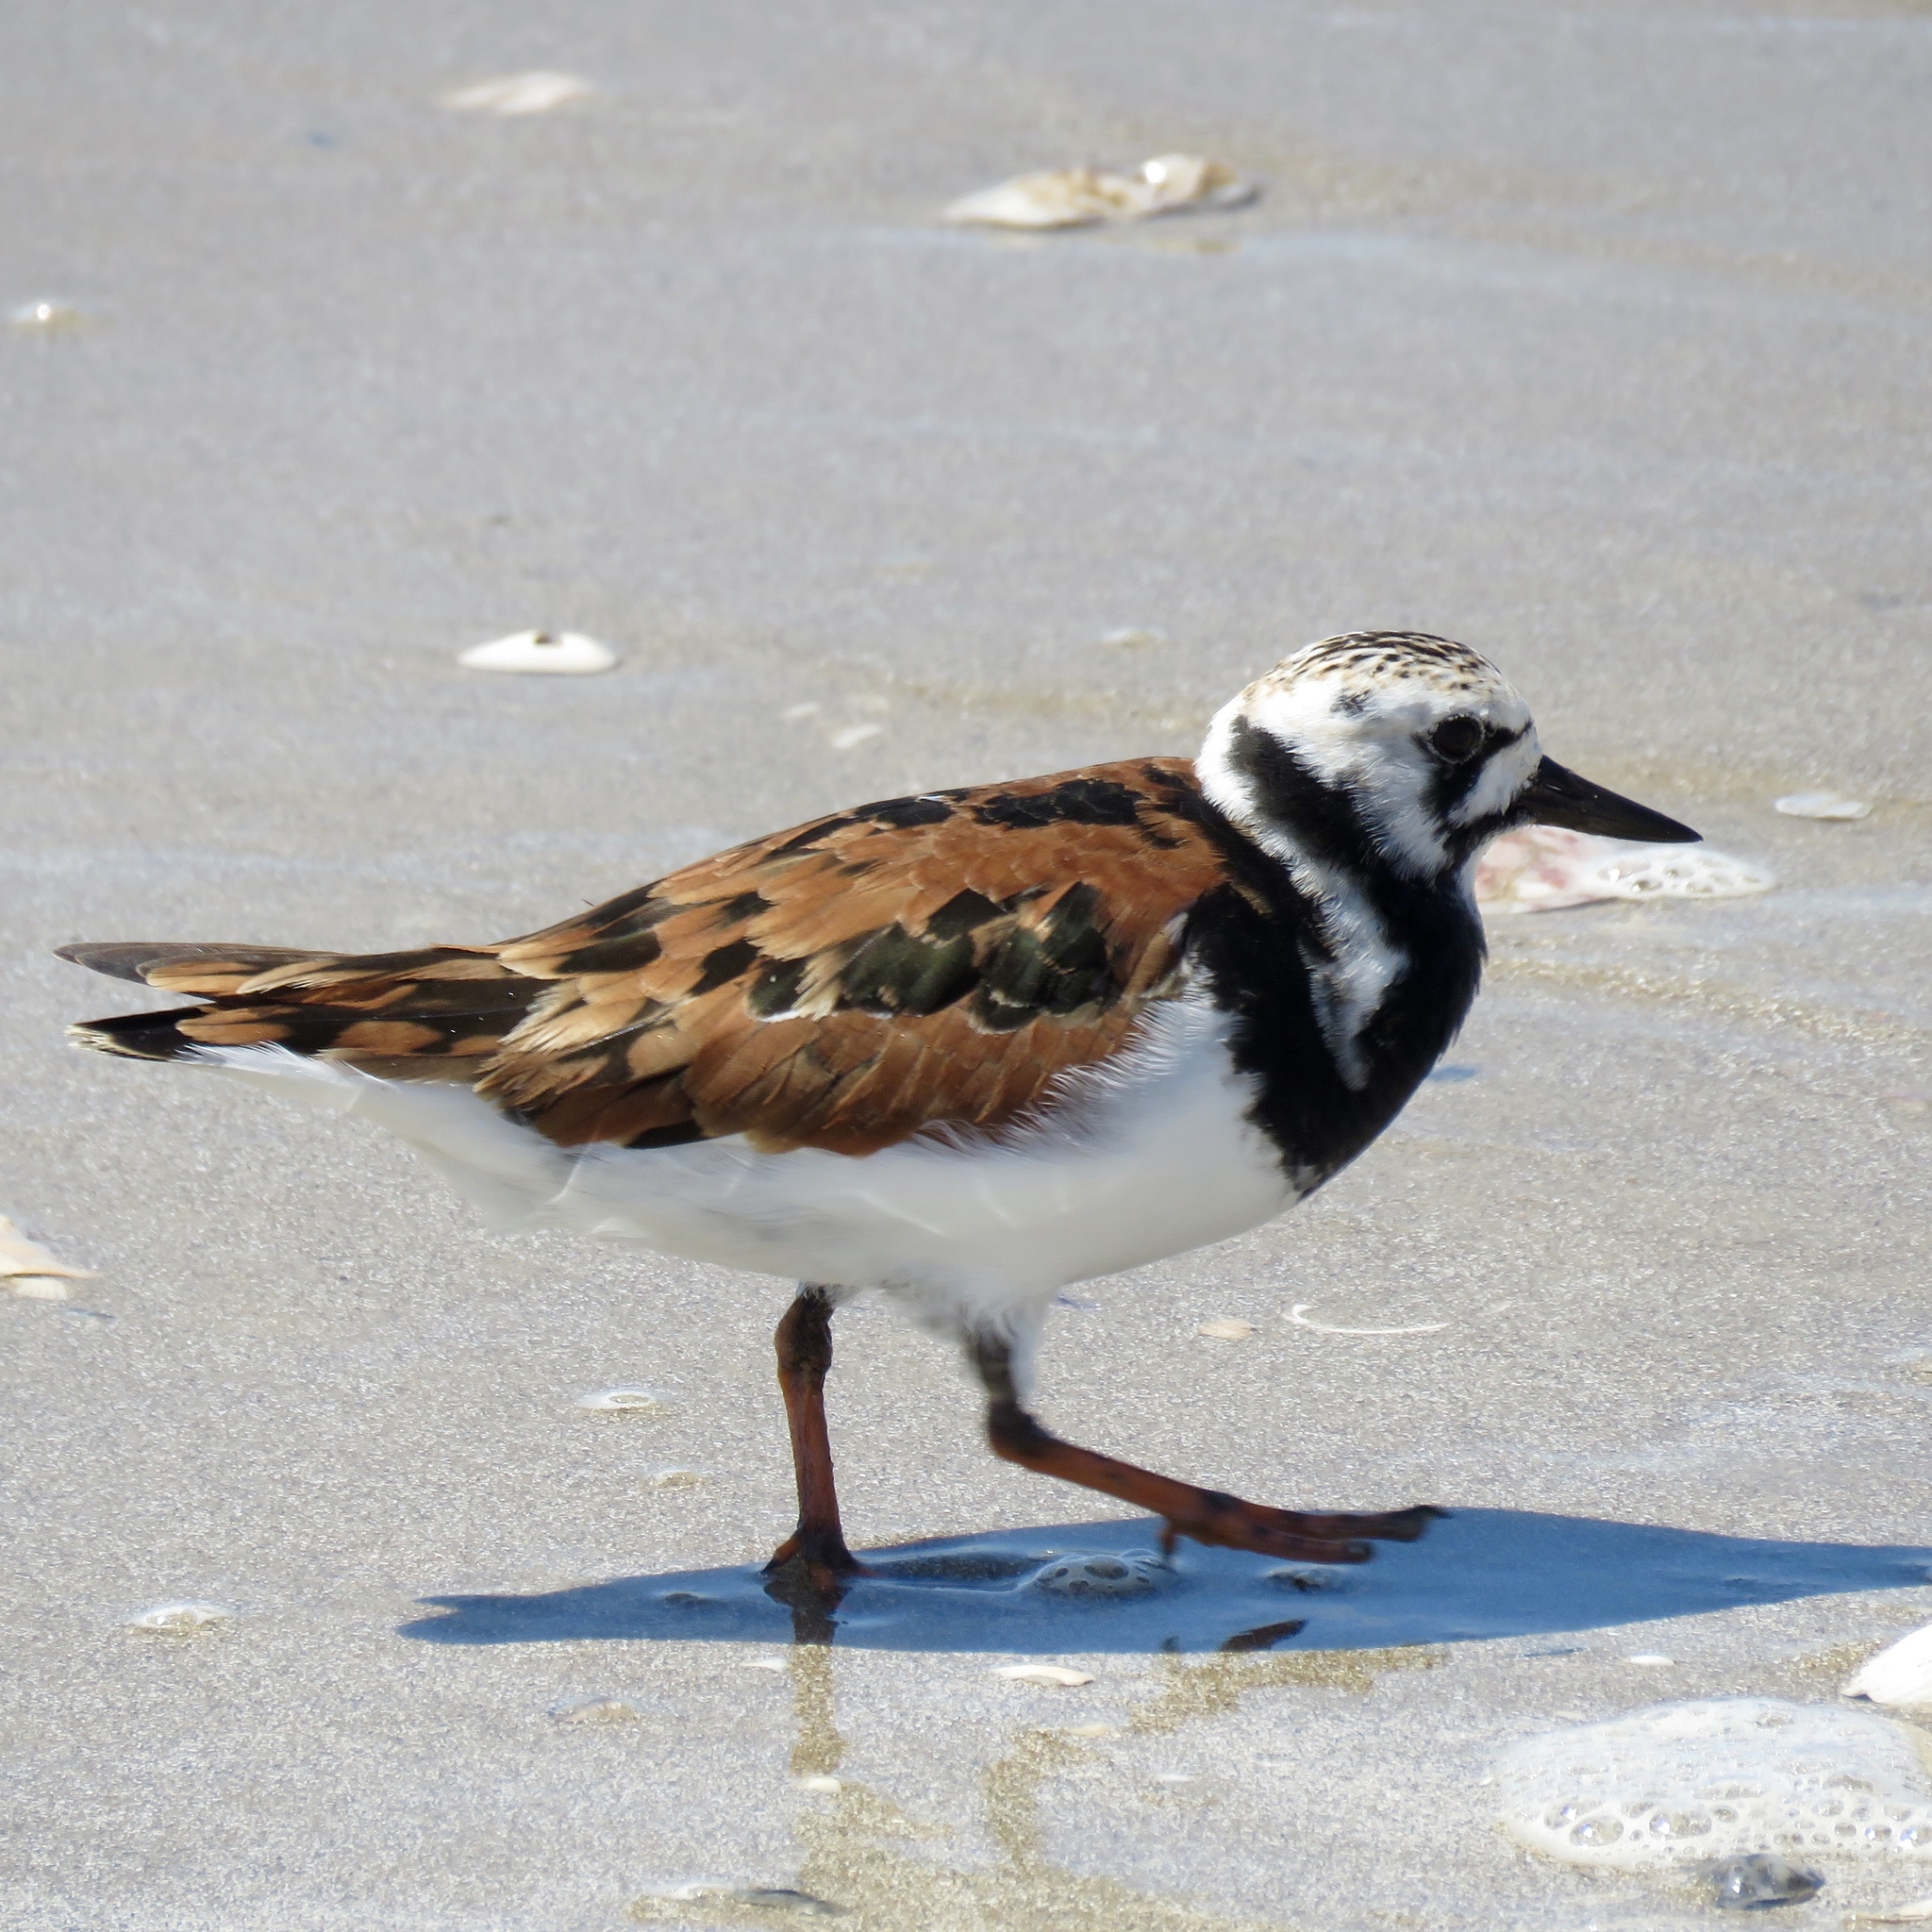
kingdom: Animalia
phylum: Chordata
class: Aves
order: Charadriiformes
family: Scolopacidae
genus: Arenaria
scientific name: Arenaria interpres
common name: Ruddy turnstone
